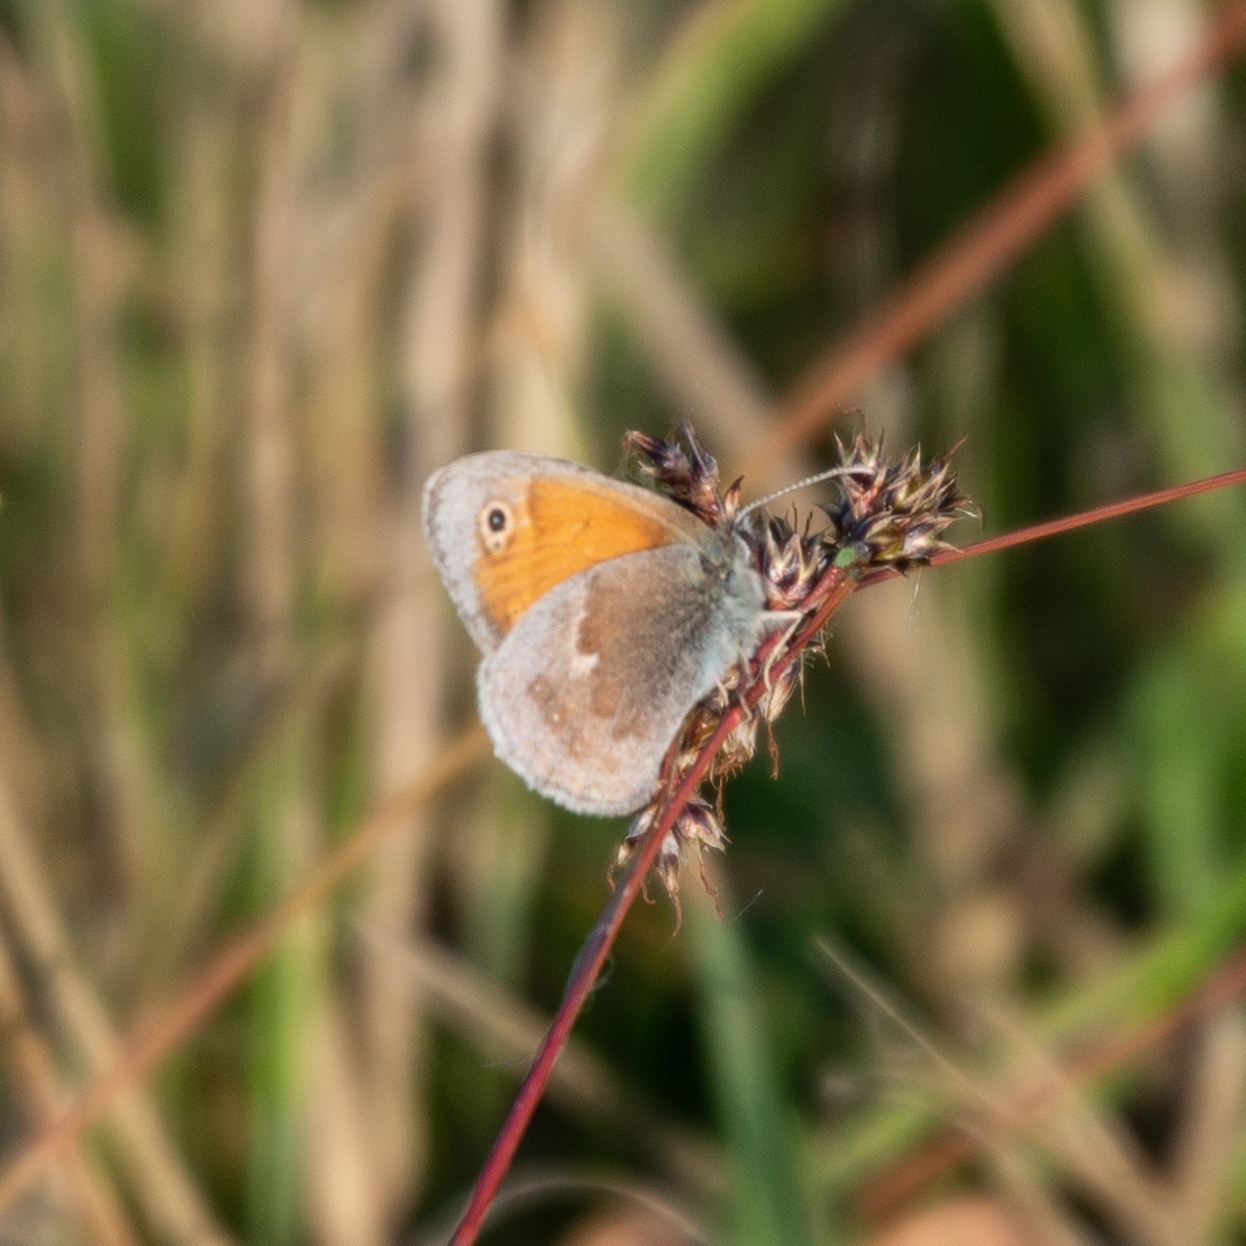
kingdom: Animalia
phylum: Arthropoda
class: Insecta
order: Lepidoptera
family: Nymphalidae
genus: Coenonympha
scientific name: Coenonympha pamphilus
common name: Small heath
